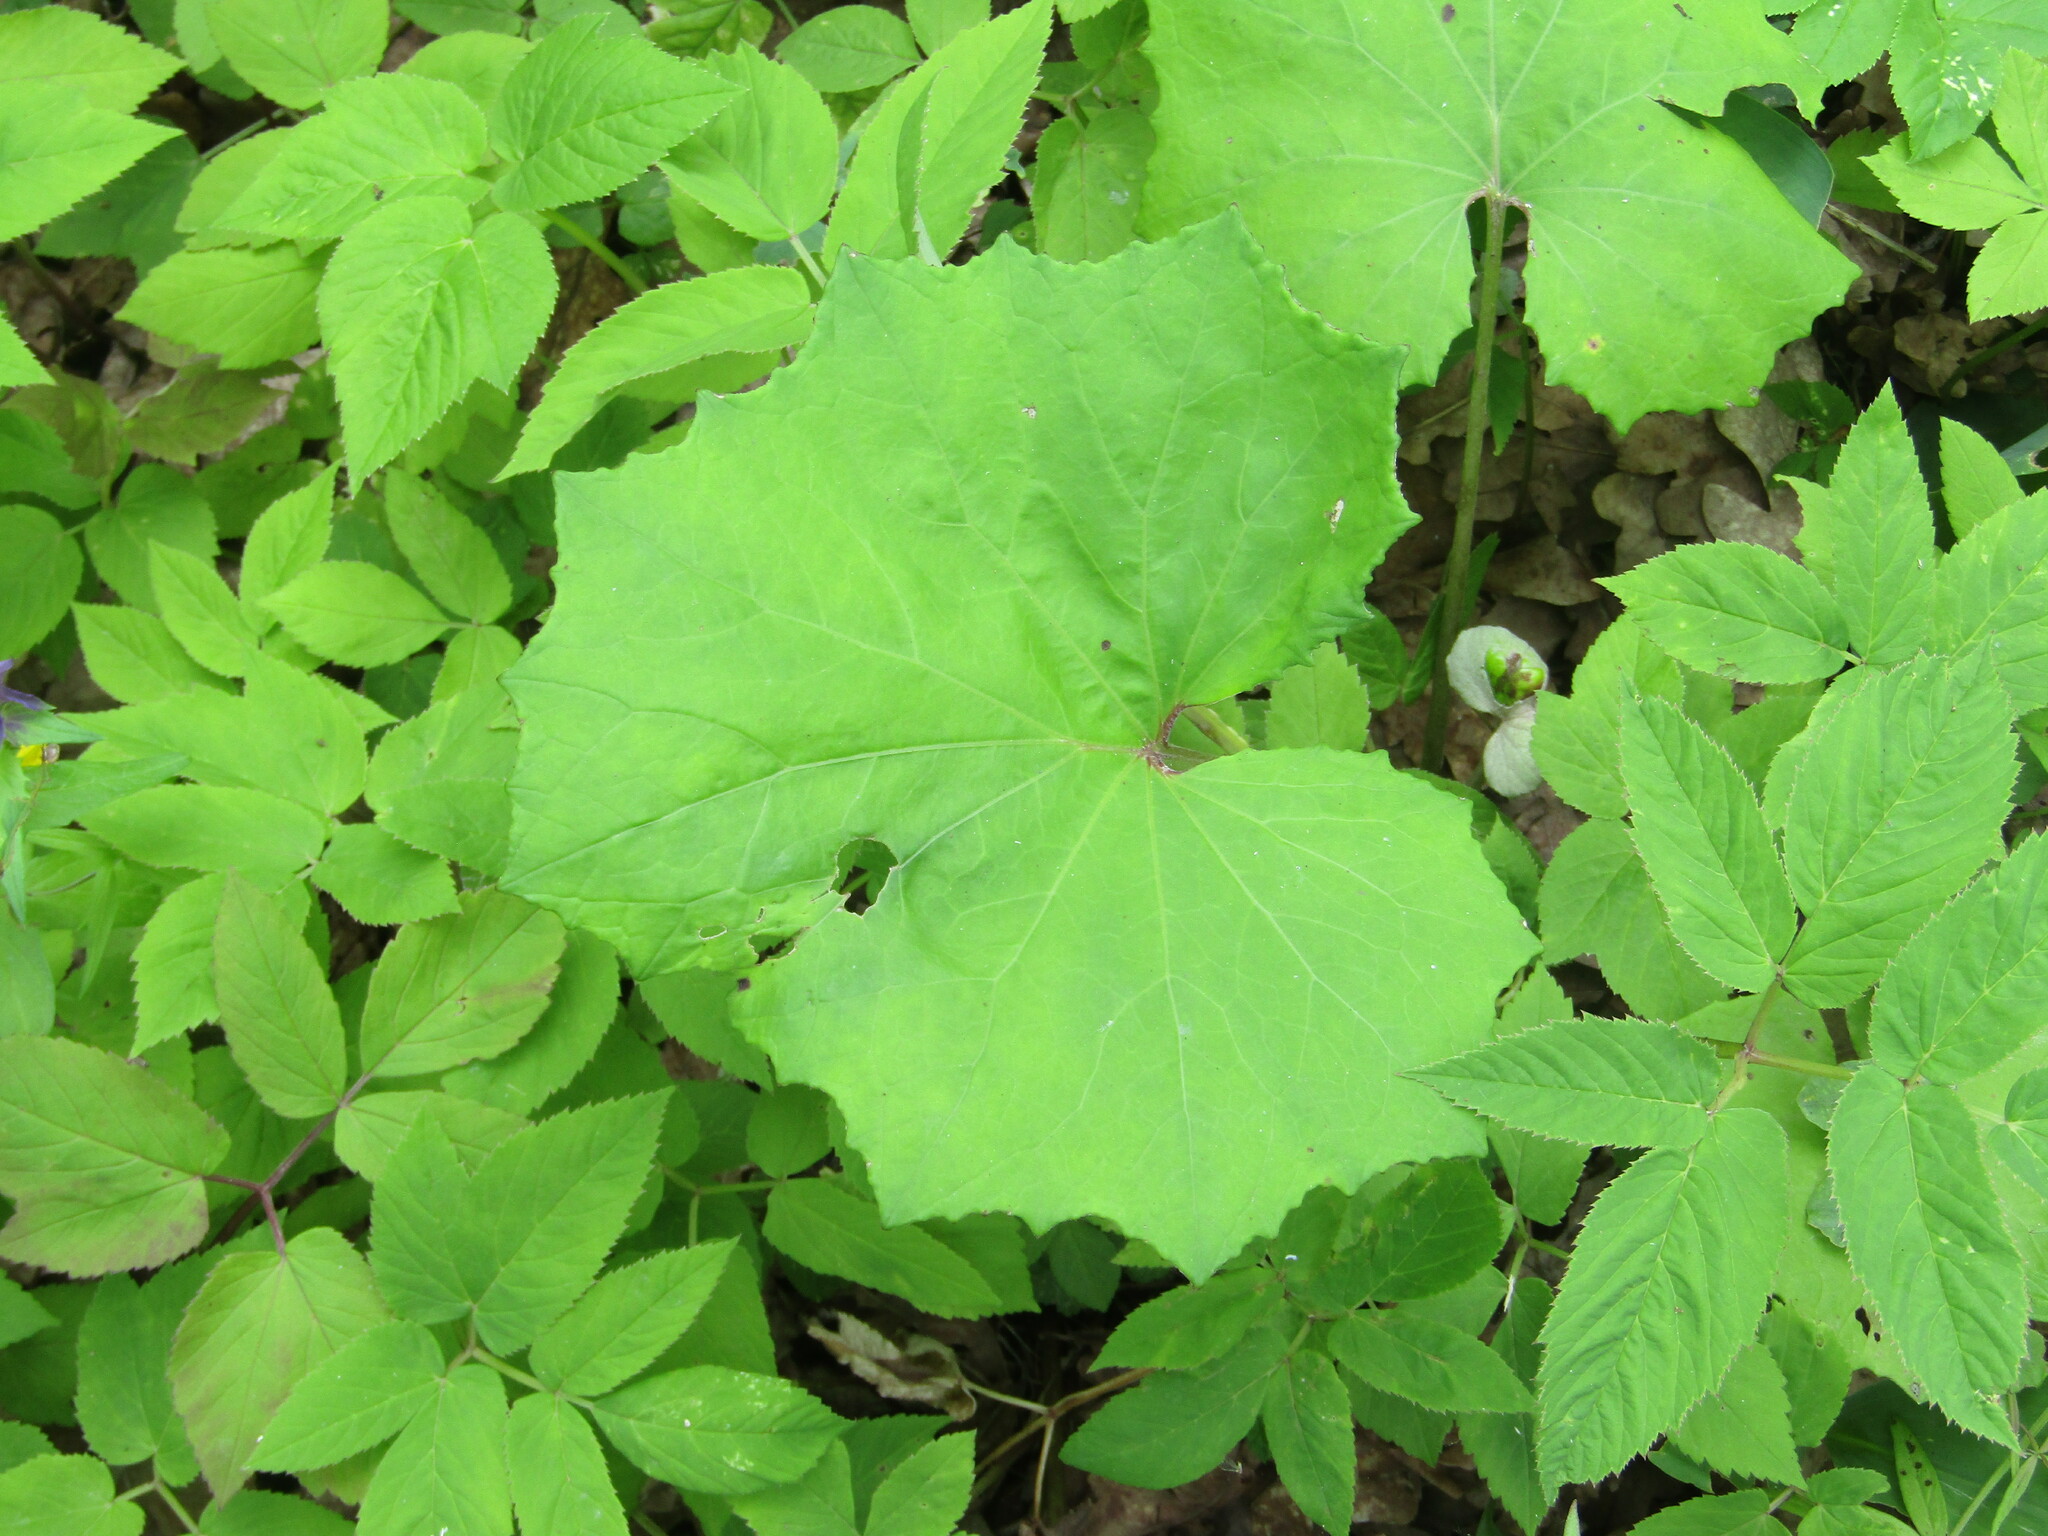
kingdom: Plantae
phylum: Tracheophyta
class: Magnoliopsida
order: Asterales
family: Asteraceae
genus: Tussilago
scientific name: Tussilago farfara
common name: Coltsfoot
